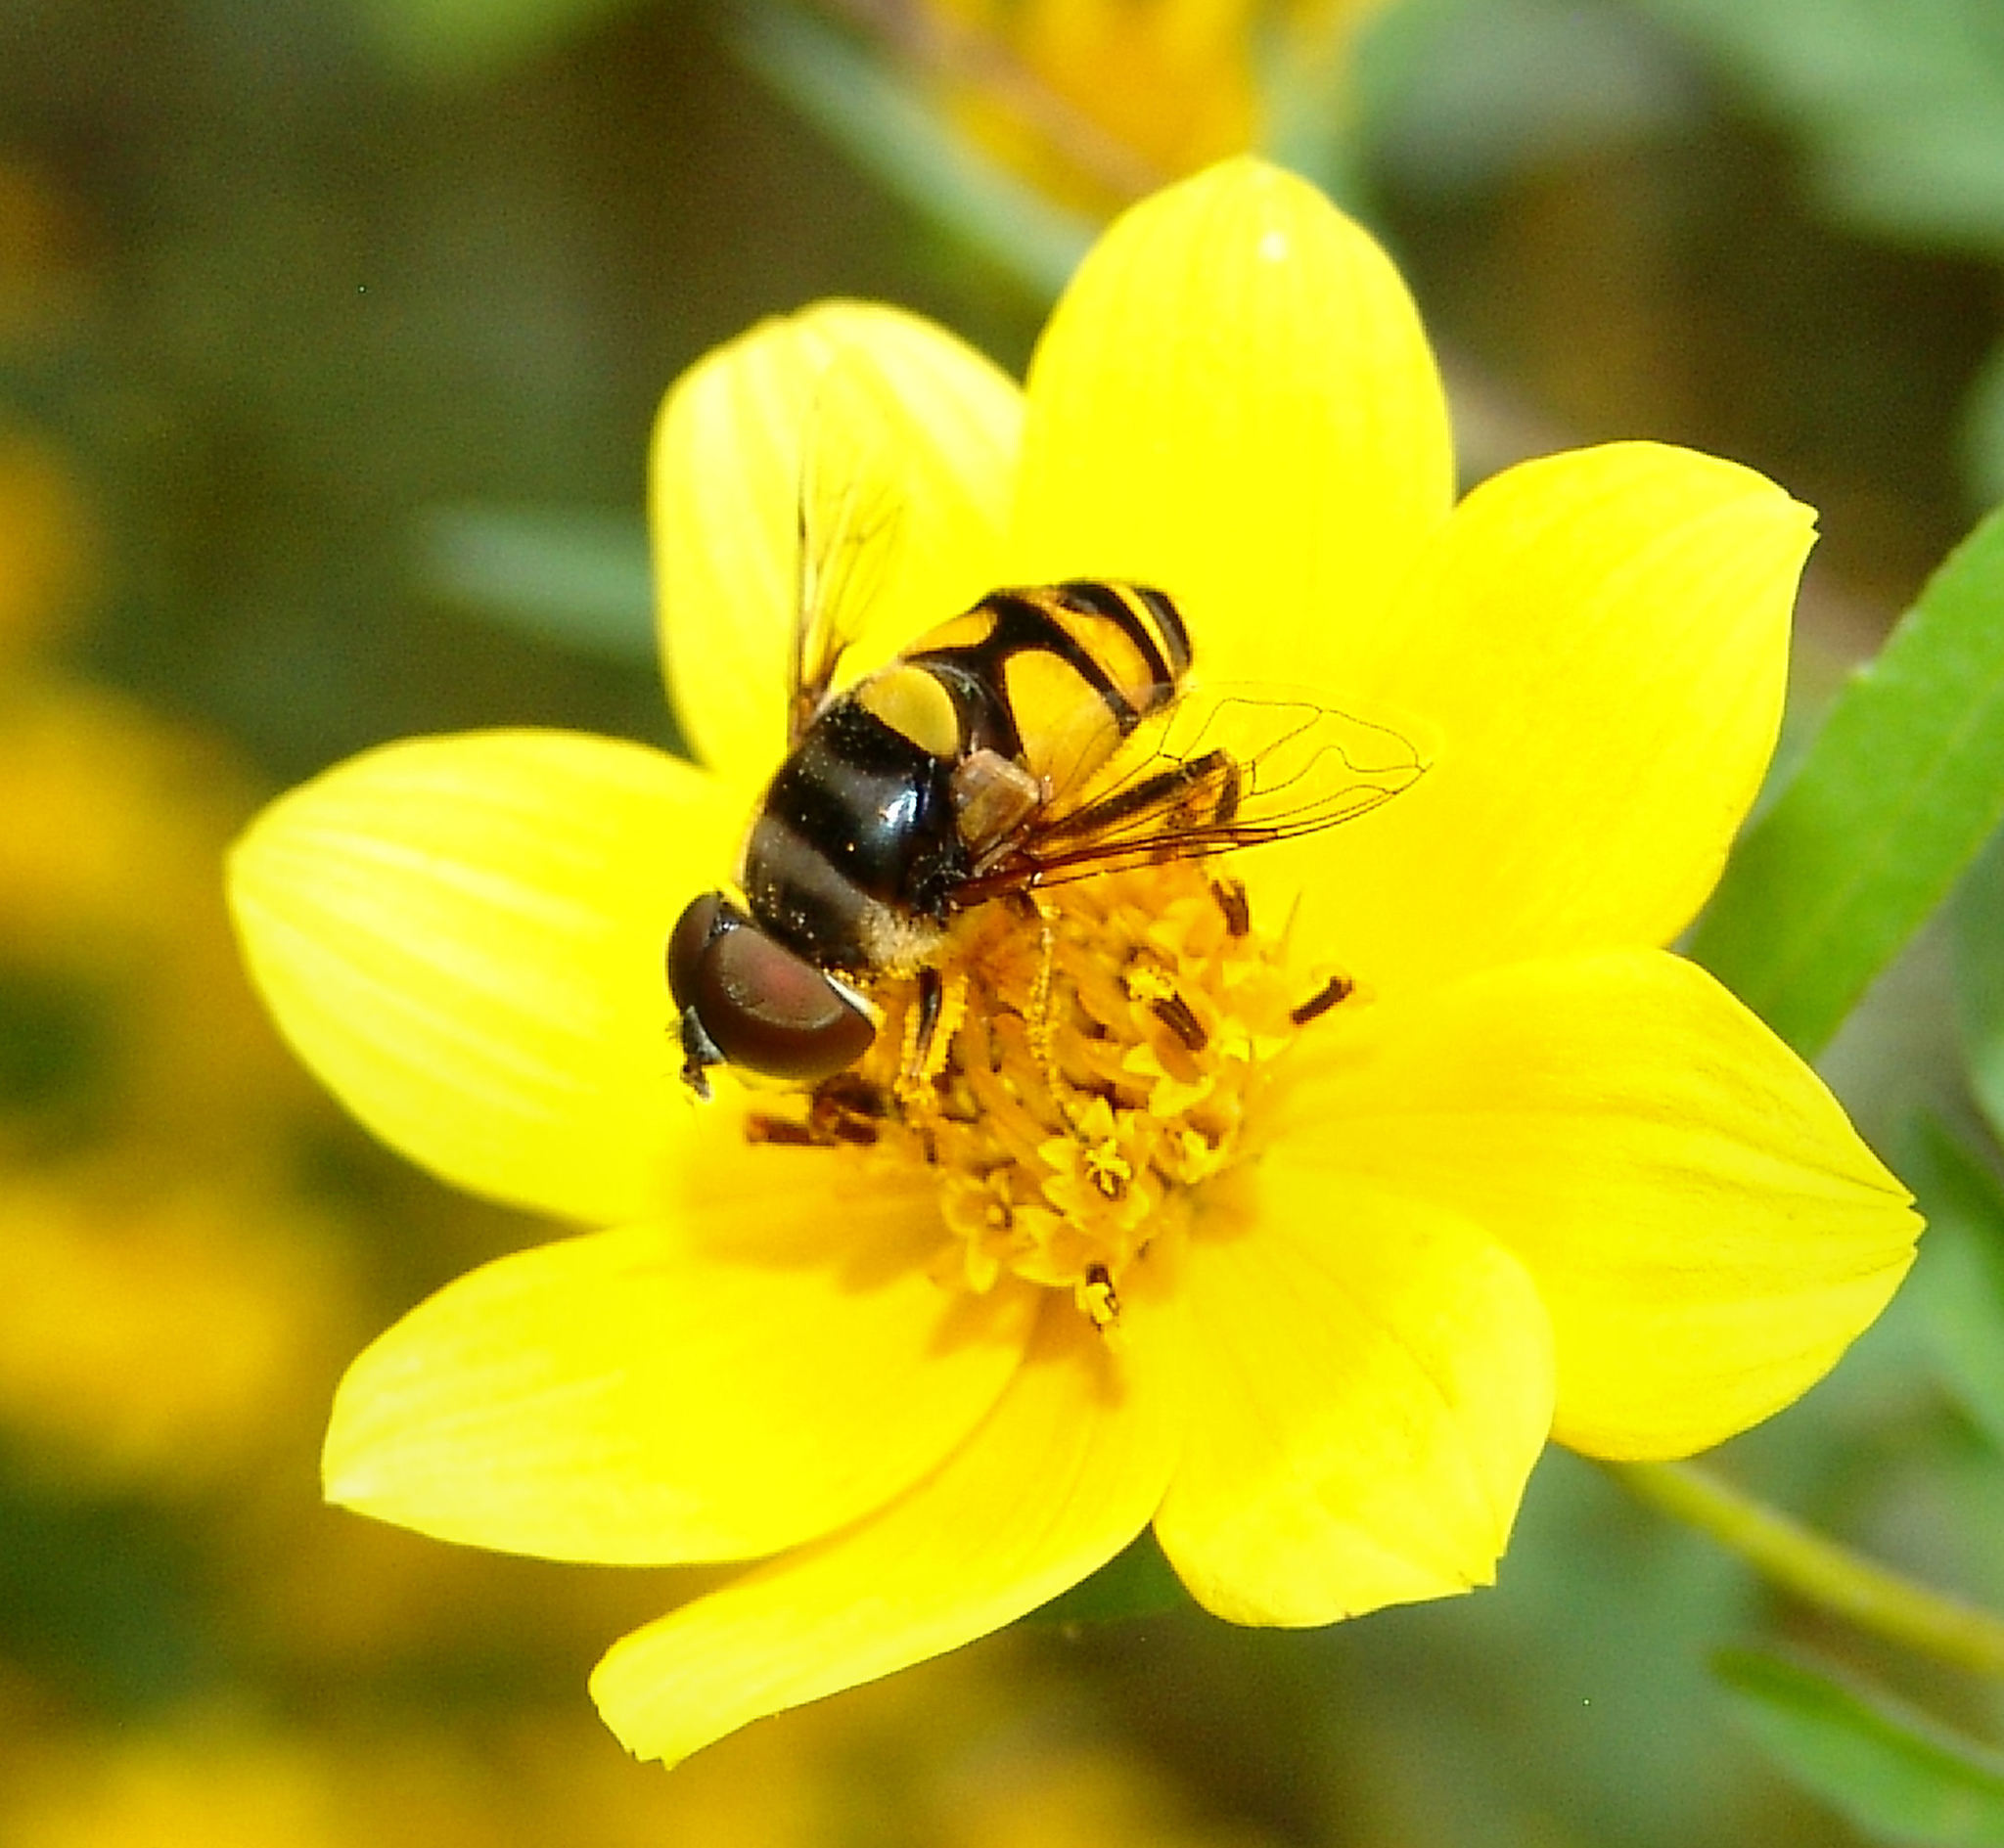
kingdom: Animalia
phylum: Arthropoda
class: Insecta
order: Diptera
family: Syrphidae
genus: Eristalis
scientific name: Eristalis transversa
